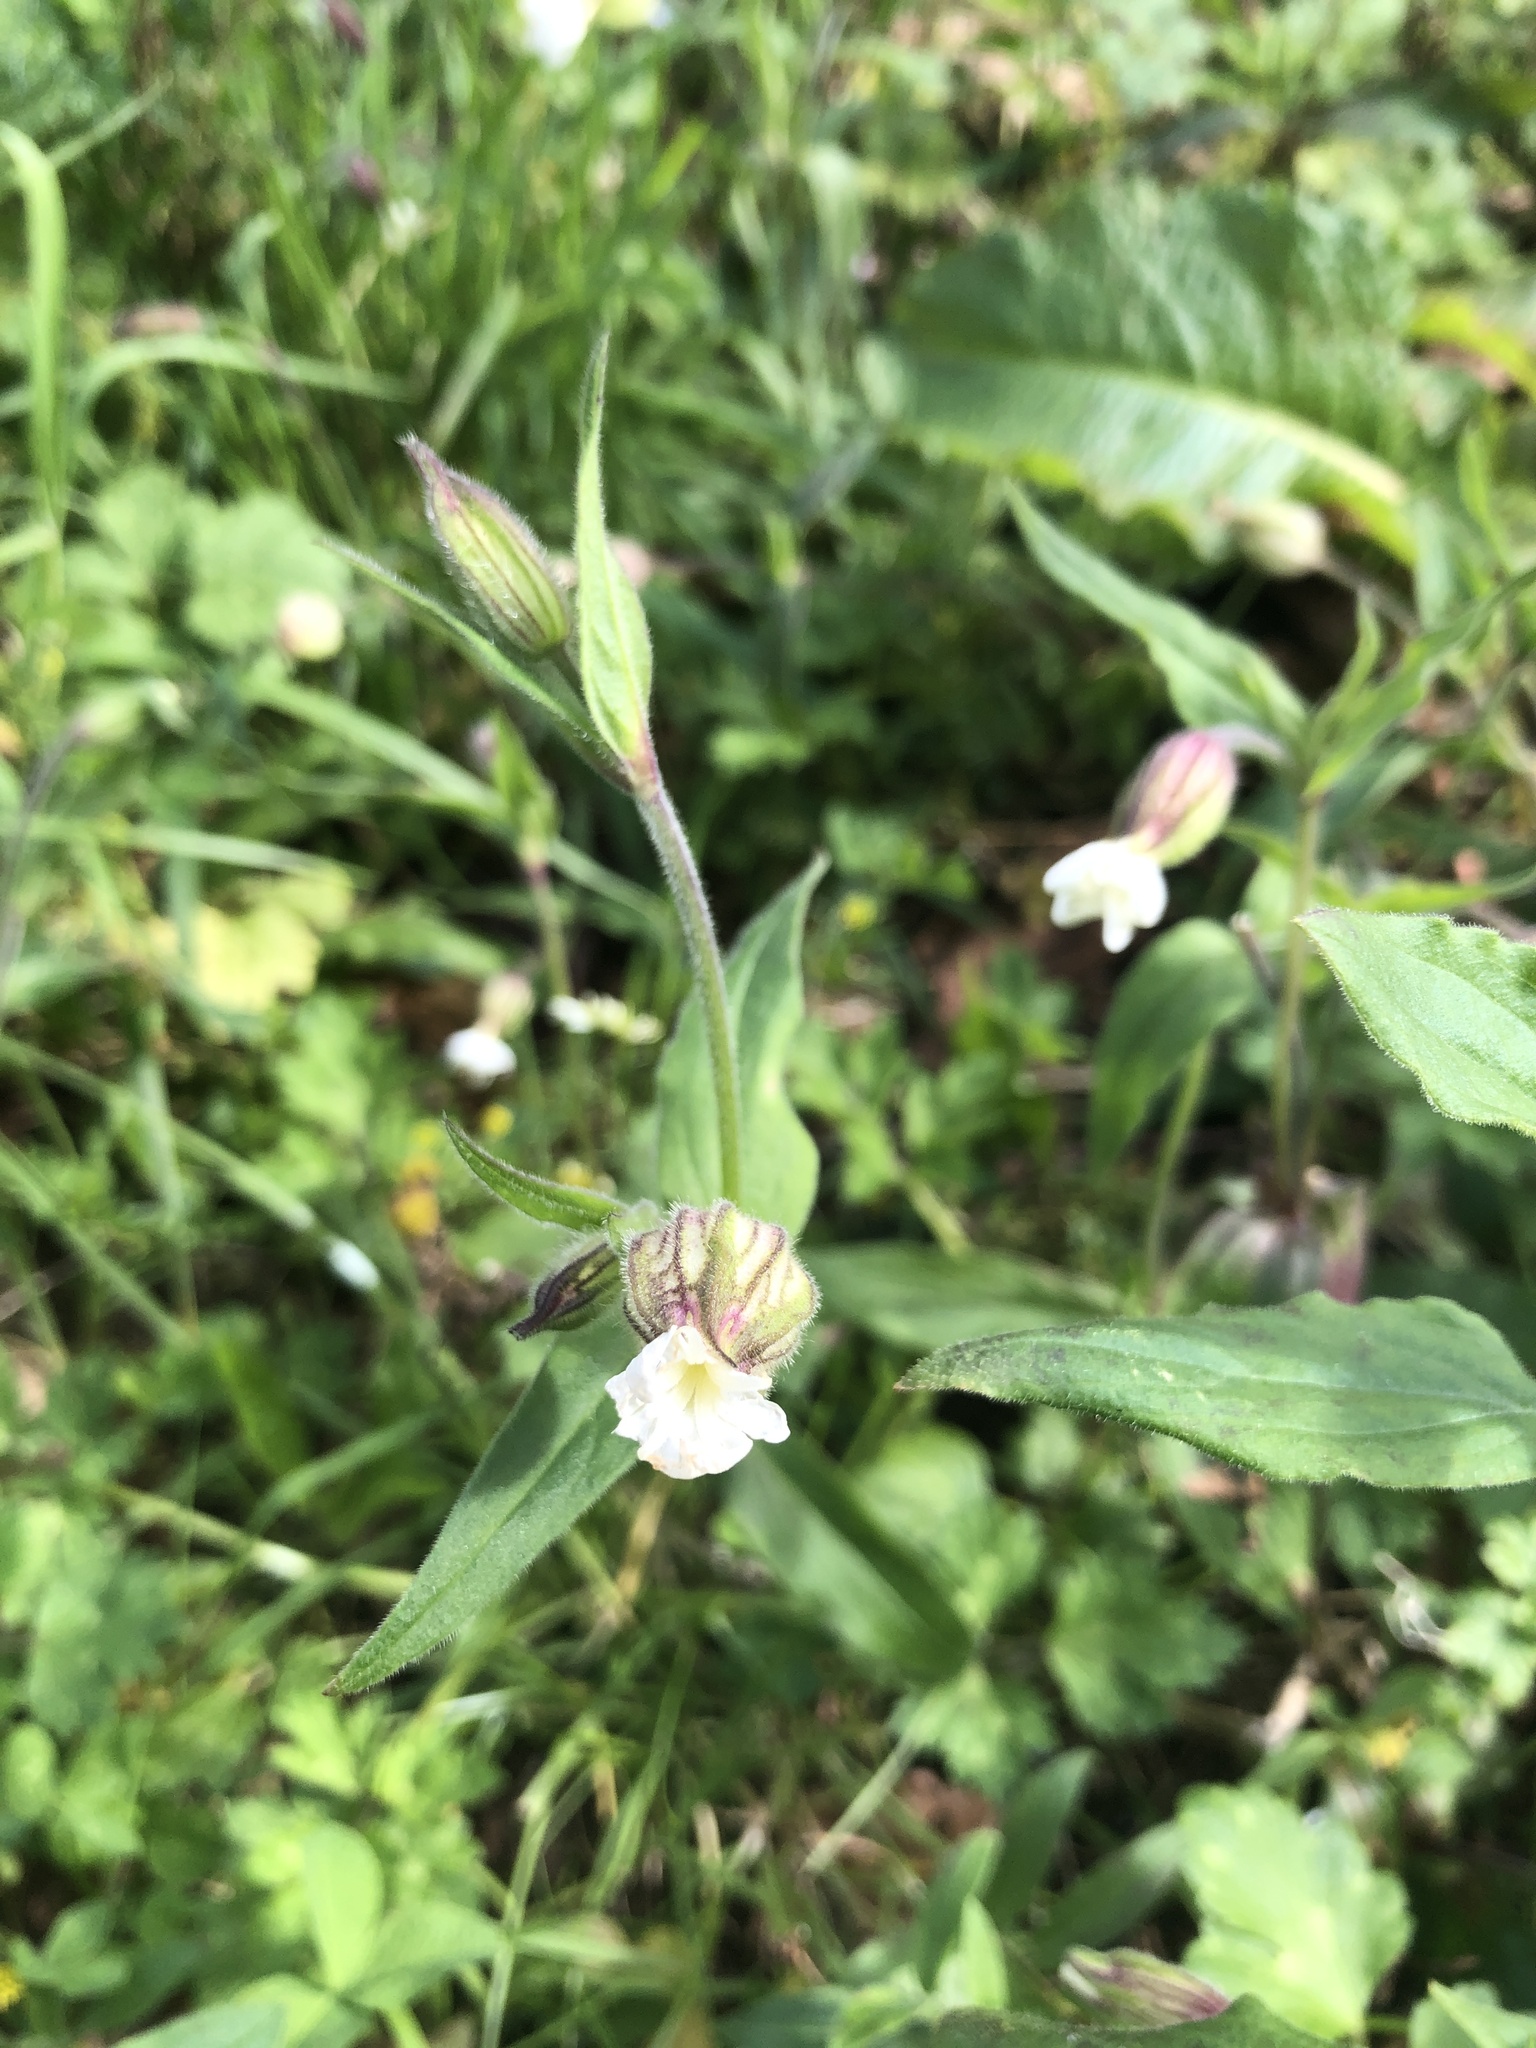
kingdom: Plantae
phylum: Tracheophyta
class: Magnoliopsida
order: Caryophyllales
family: Caryophyllaceae
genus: Silene
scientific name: Silene latifolia
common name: White campion
